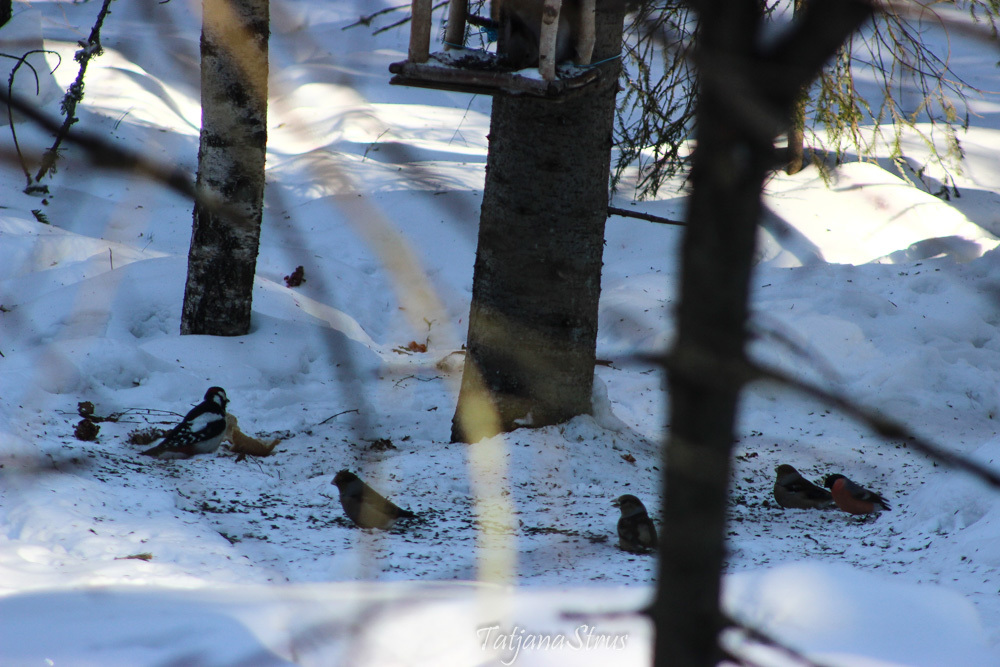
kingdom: Animalia
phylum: Chordata
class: Aves
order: Piciformes
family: Picidae
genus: Dendrocopos
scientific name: Dendrocopos major
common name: Great spotted woodpecker
